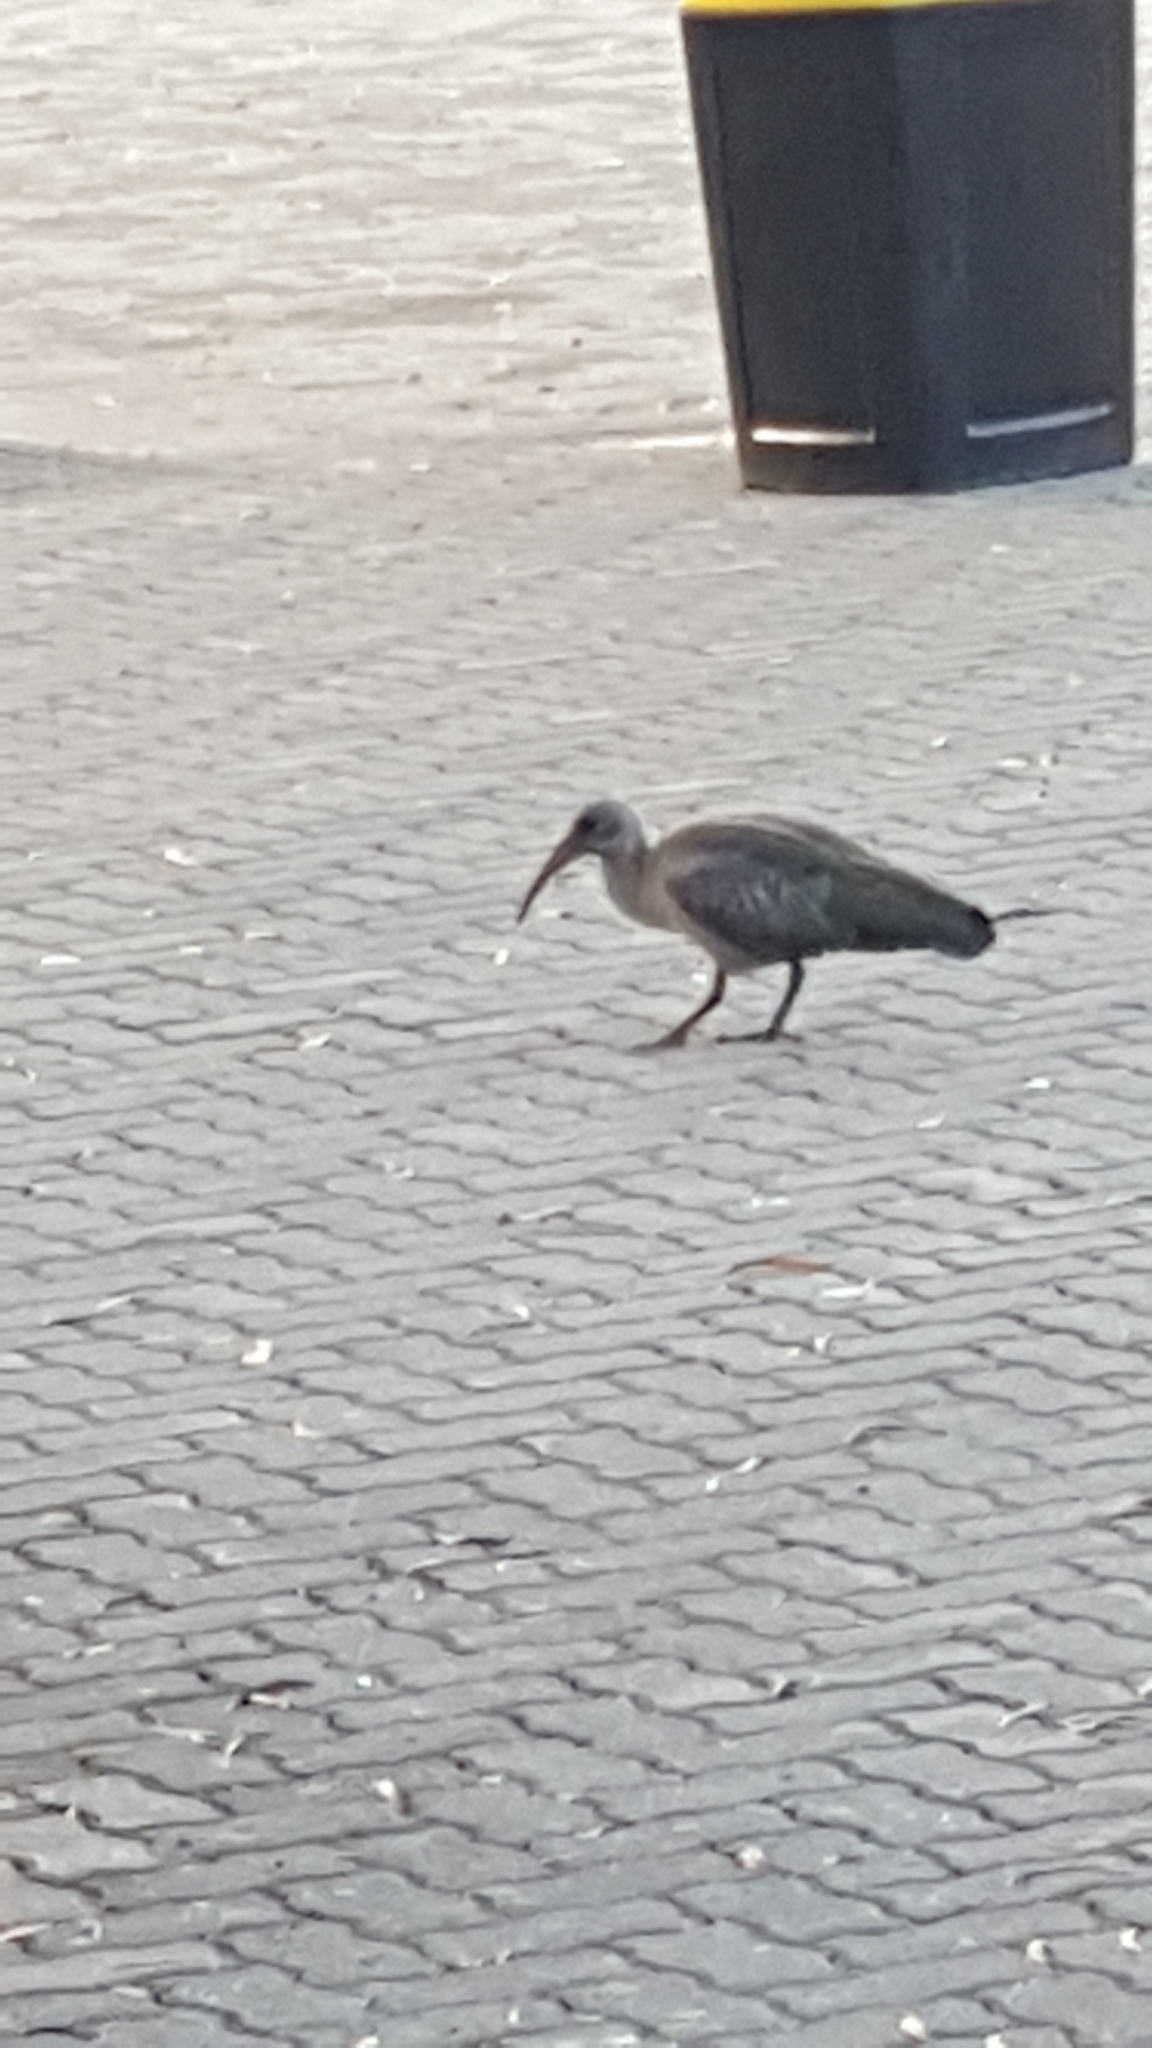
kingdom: Animalia
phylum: Chordata
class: Aves
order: Pelecaniformes
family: Threskiornithidae
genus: Bostrychia
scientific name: Bostrychia hagedash
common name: Hadada ibis
